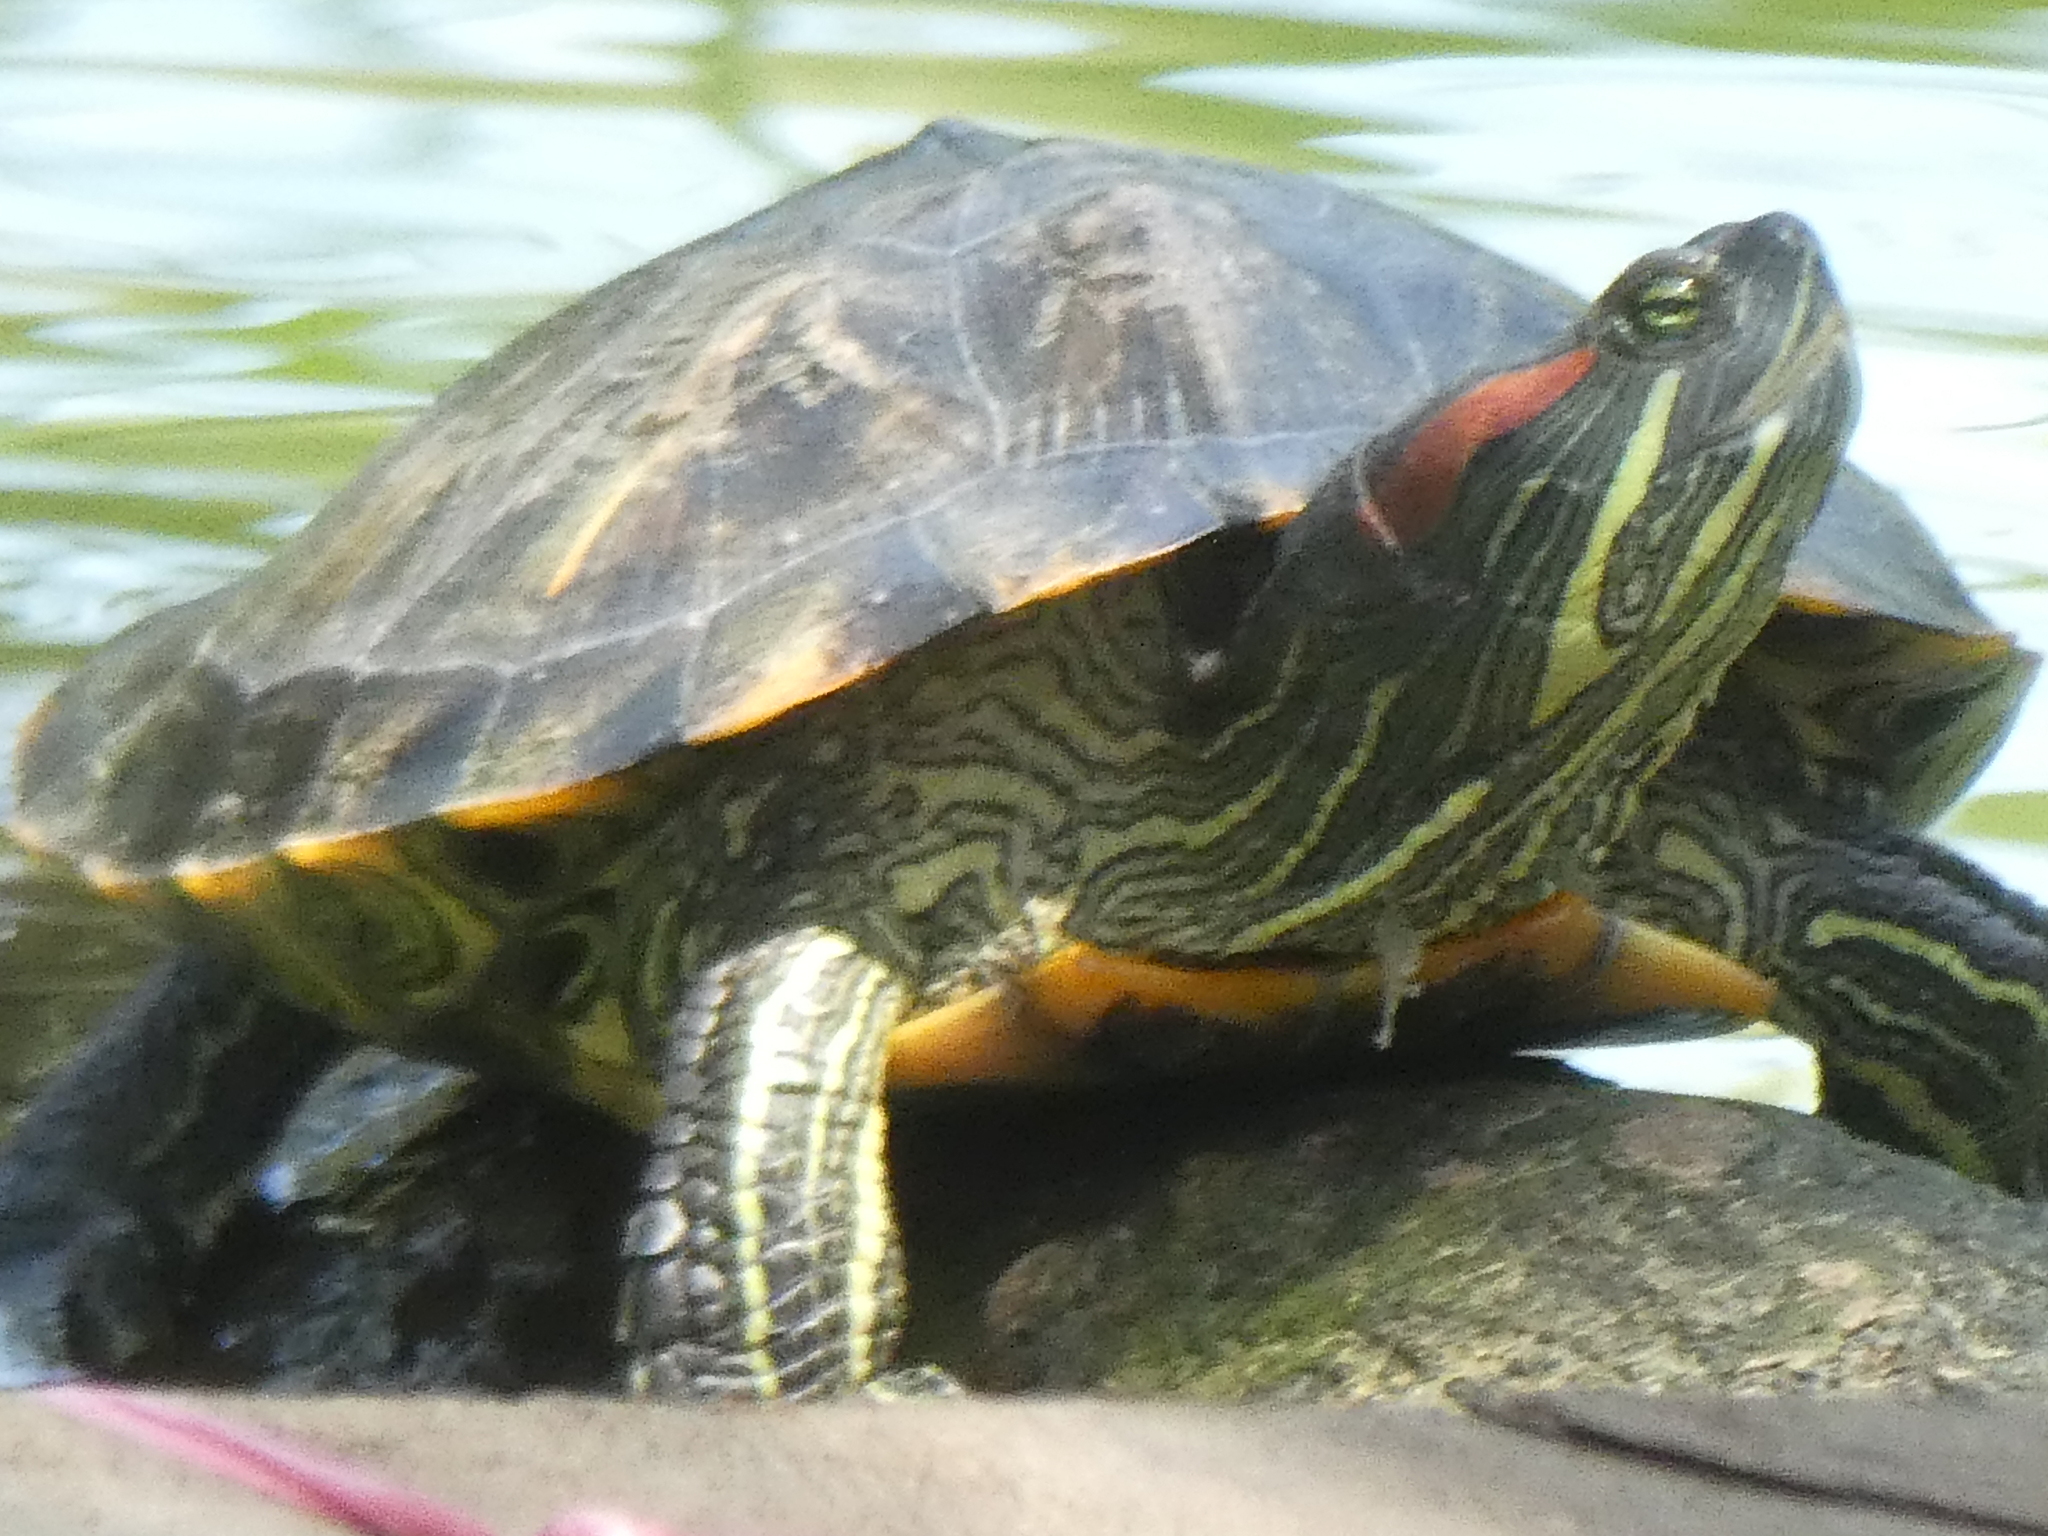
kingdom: Animalia
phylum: Chordata
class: Testudines
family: Emydidae
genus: Trachemys
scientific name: Trachemys scripta
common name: Slider
